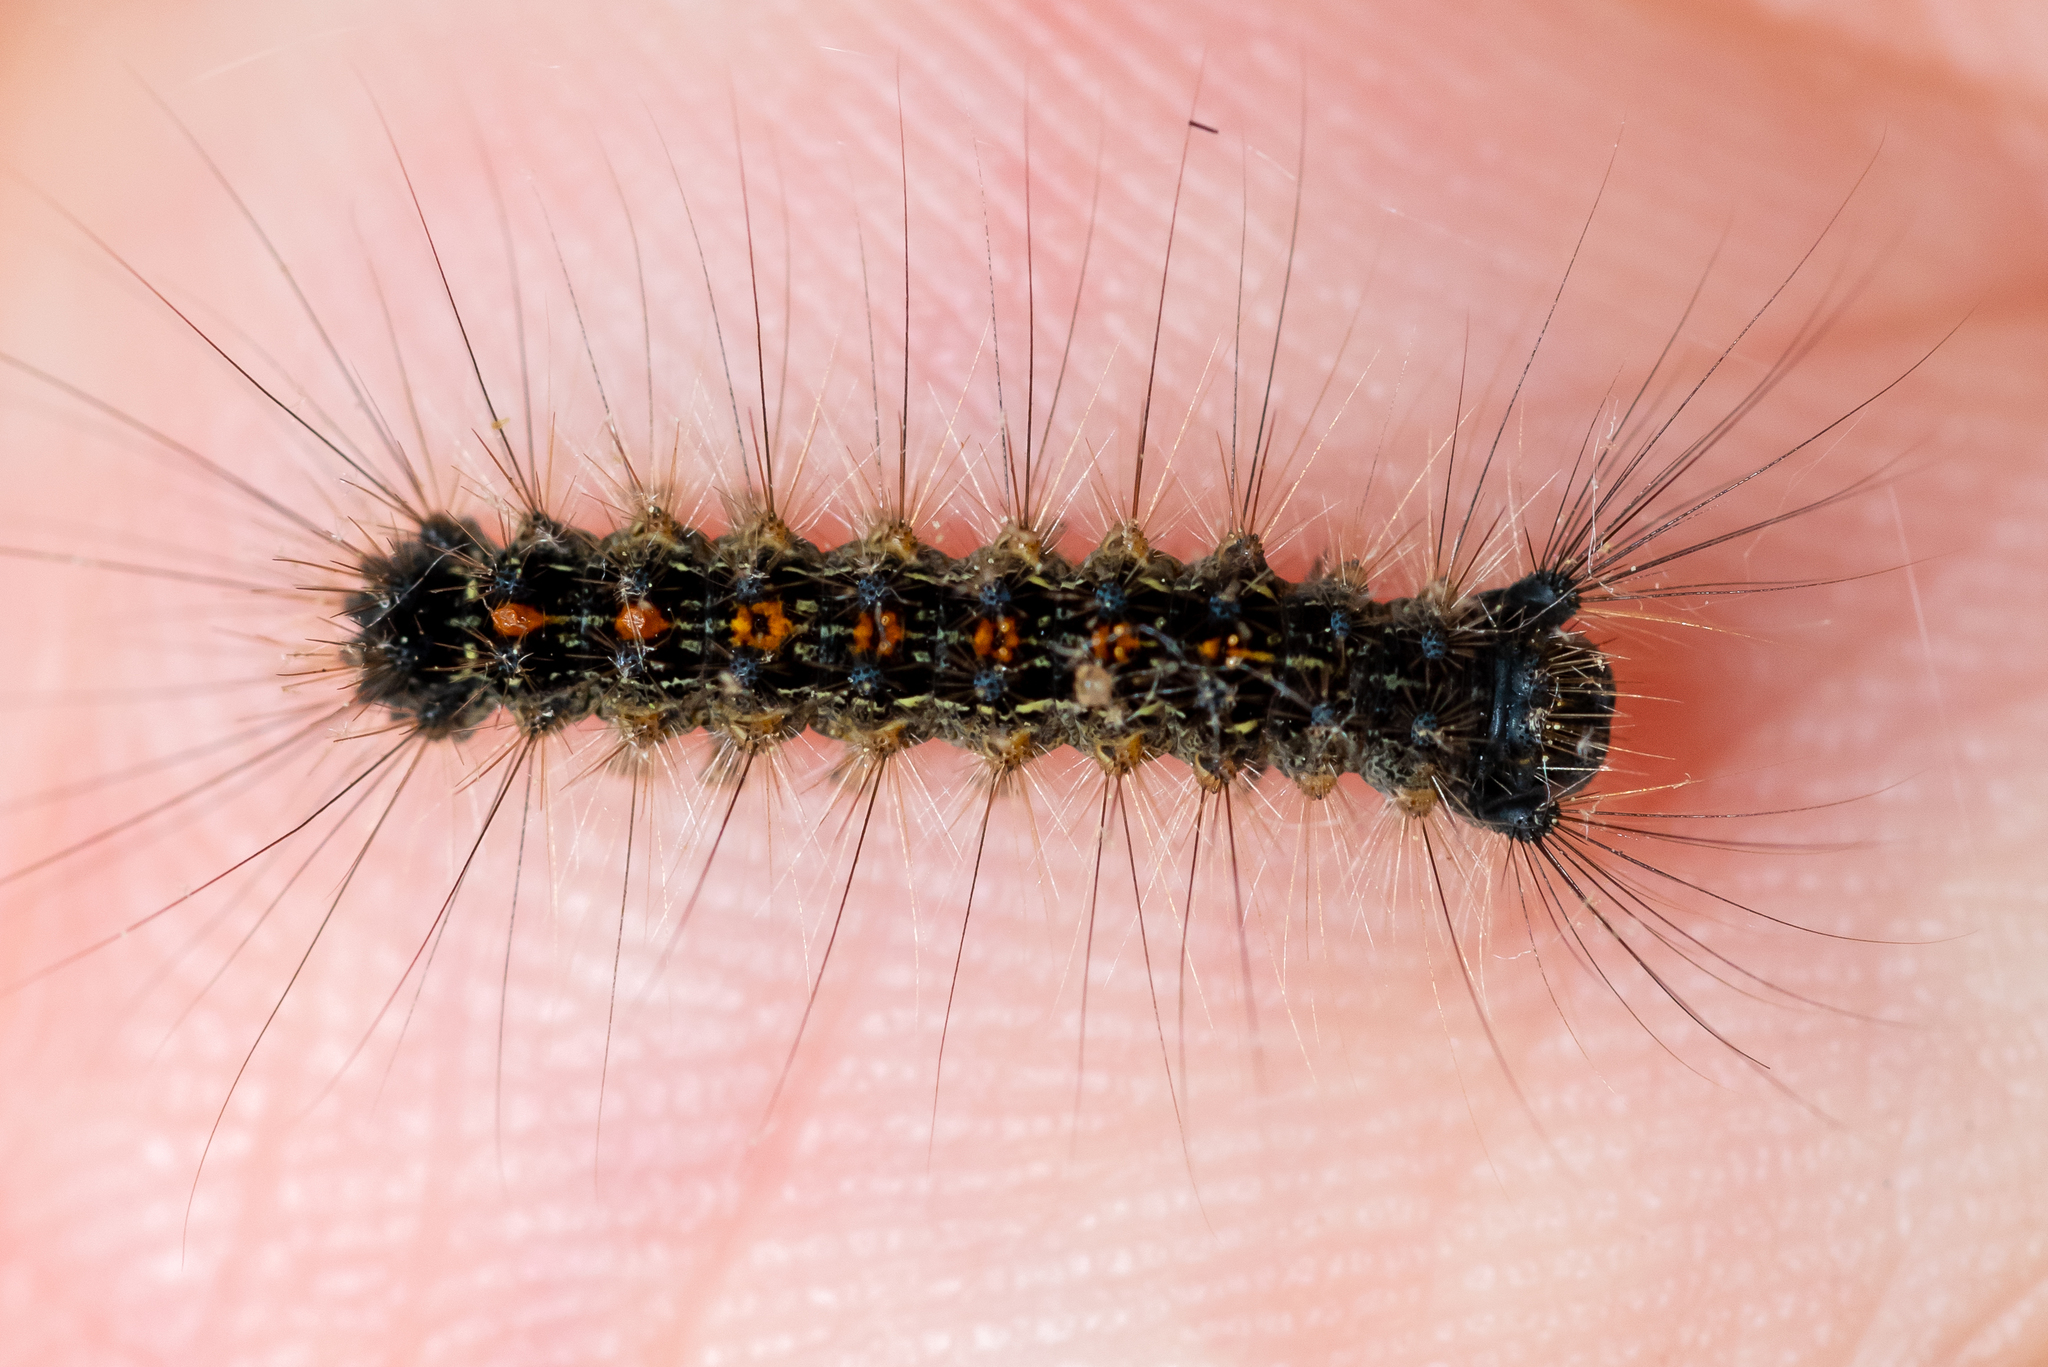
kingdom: Animalia
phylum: Arthropoda
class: Insecta
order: Lepidoptera
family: Erebidae
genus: Lymantria
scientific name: Lymantria dispar
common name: Gypsy moth
